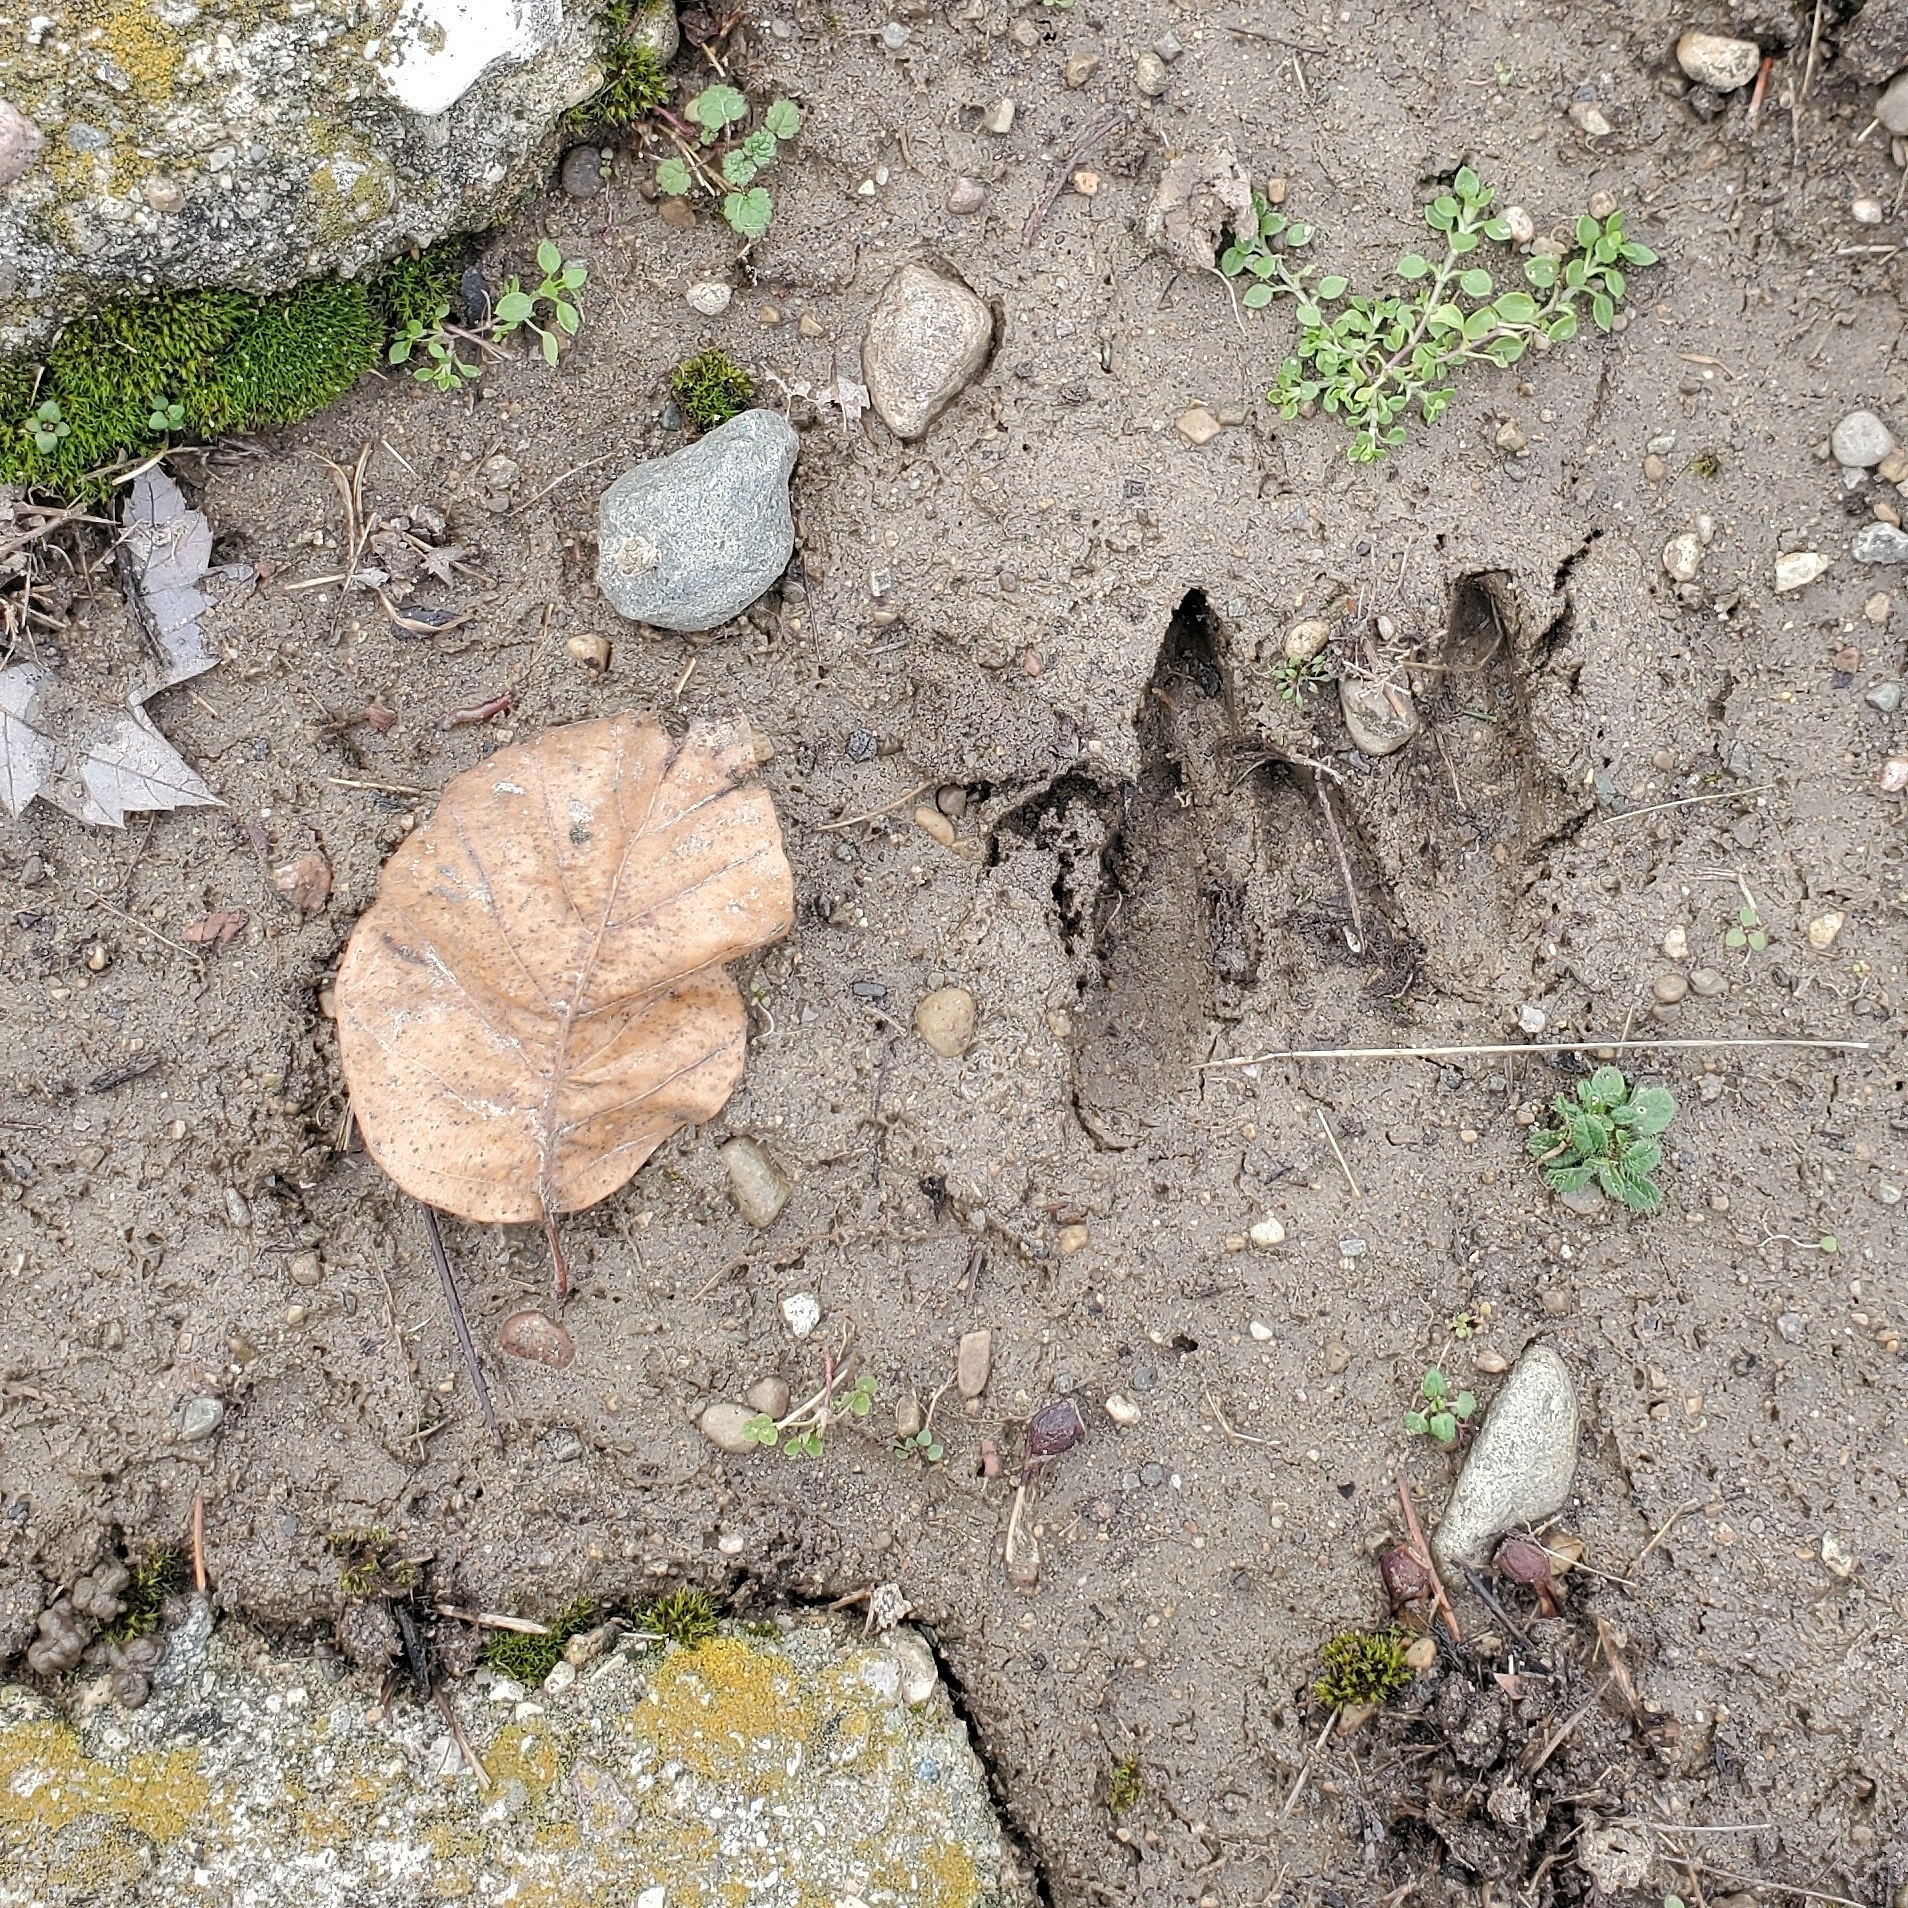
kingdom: Animalia
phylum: Chordata
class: Mammalia
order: Artiodactyla
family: Cervidae
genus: Odocoileus
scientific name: Odocoileus virginianus
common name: White-tailed deer
